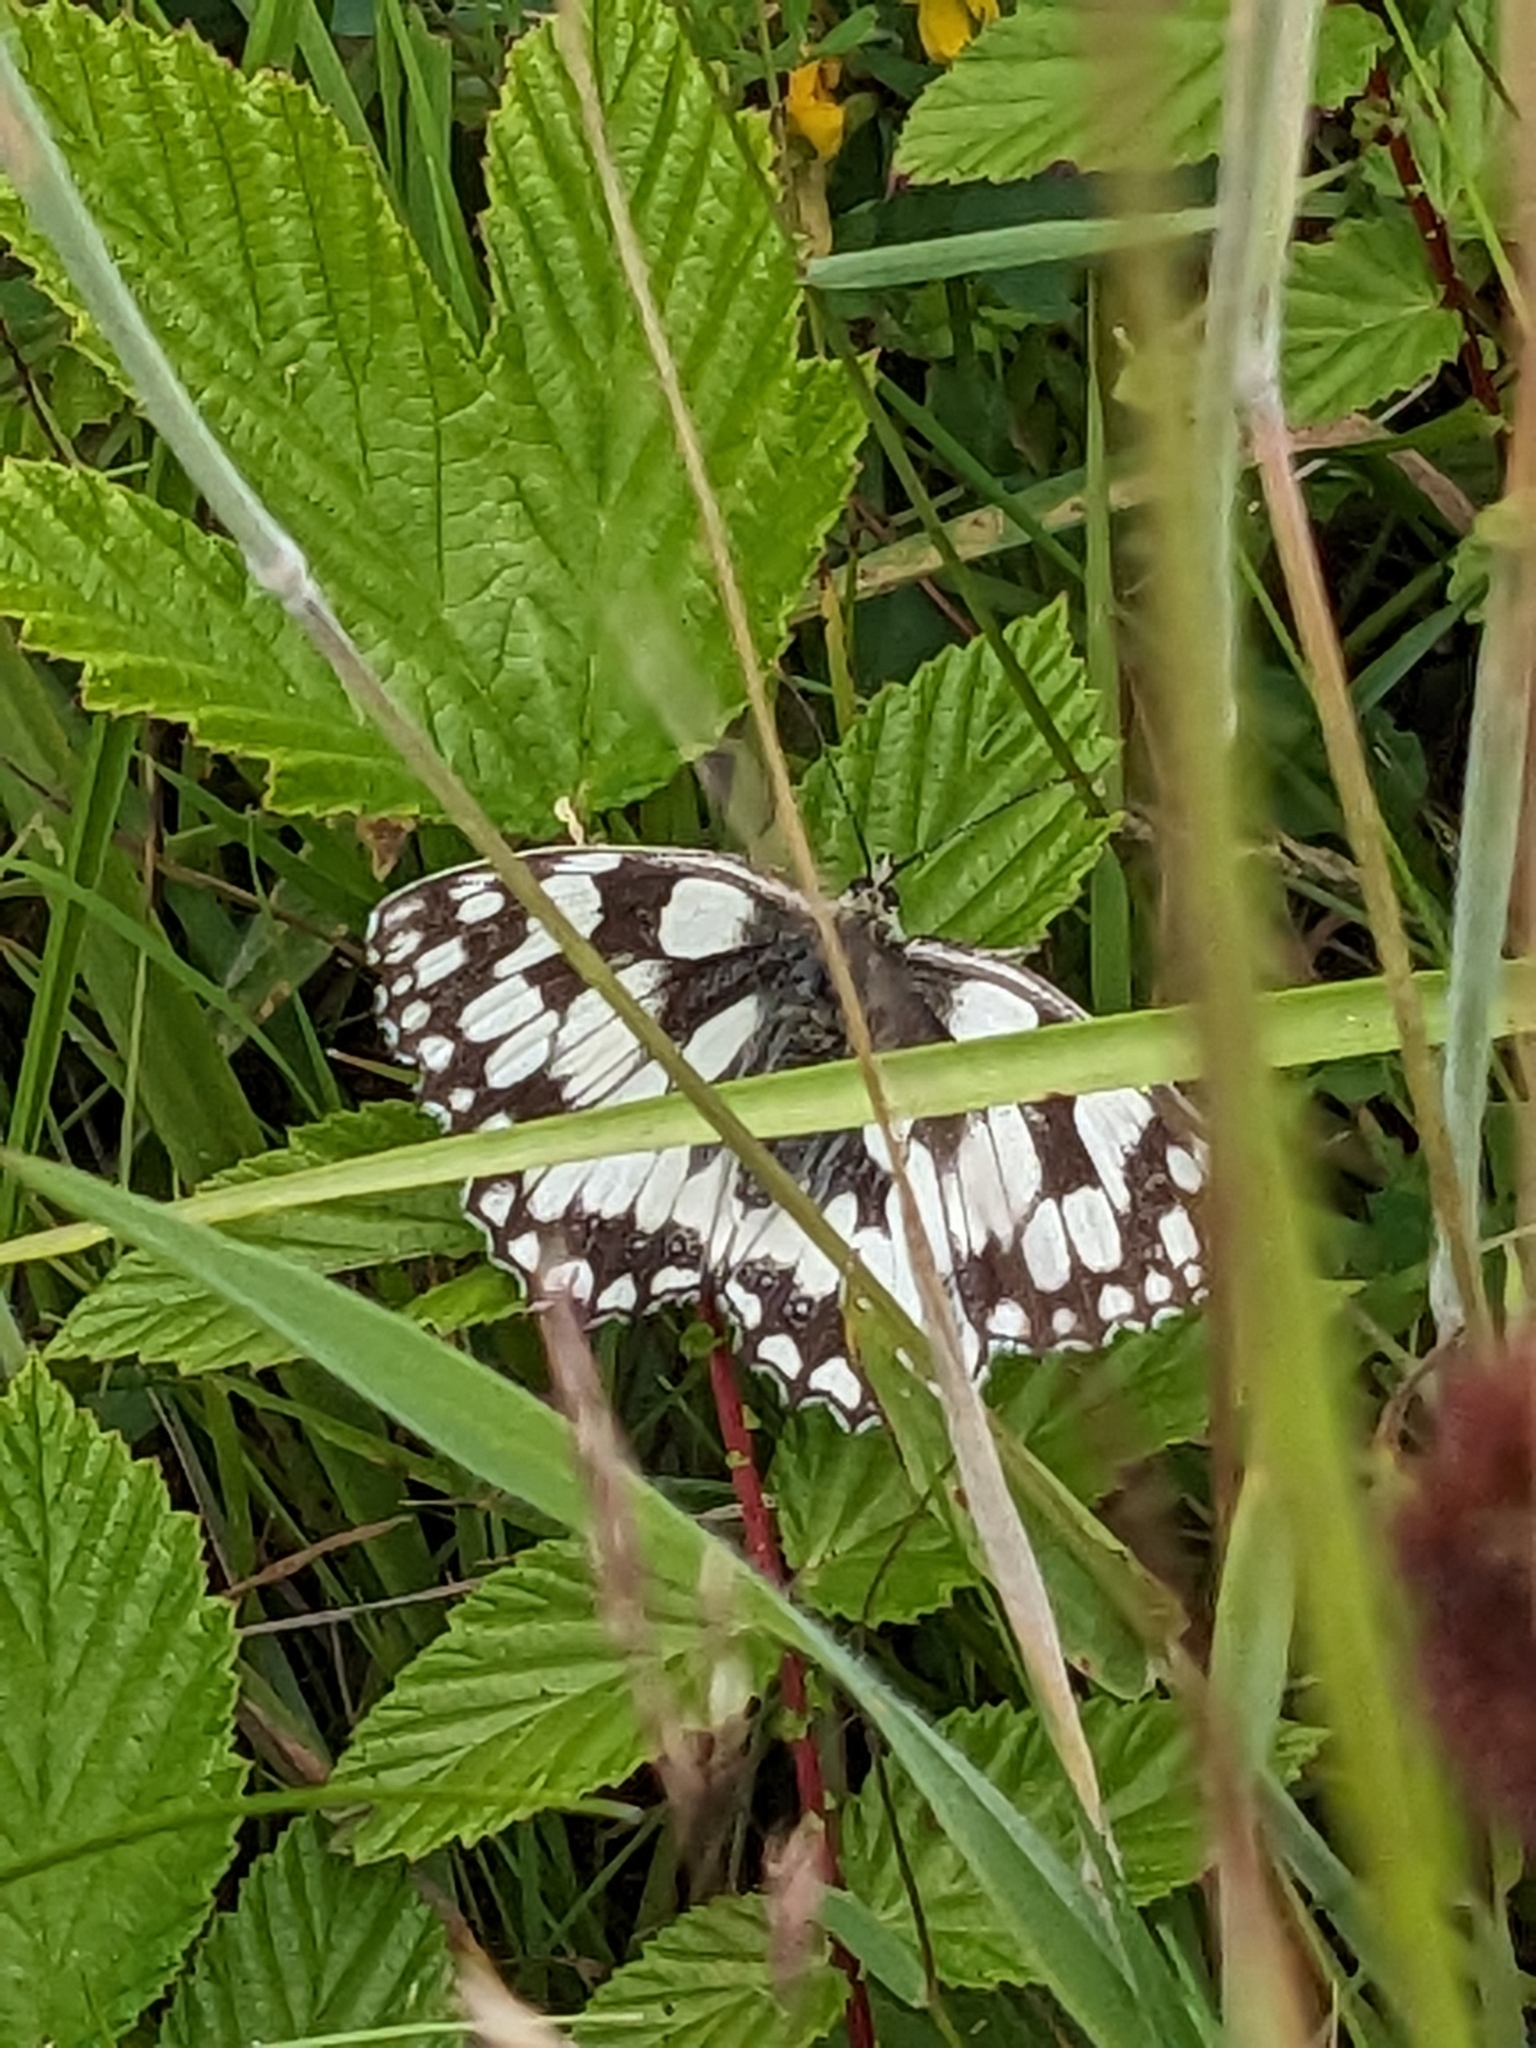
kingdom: Animalia
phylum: Arthropoda
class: Insecta
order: Lepidoptera
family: Nymphalidae
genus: Melanargia
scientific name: Melanargia galathea
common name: Marbled white
